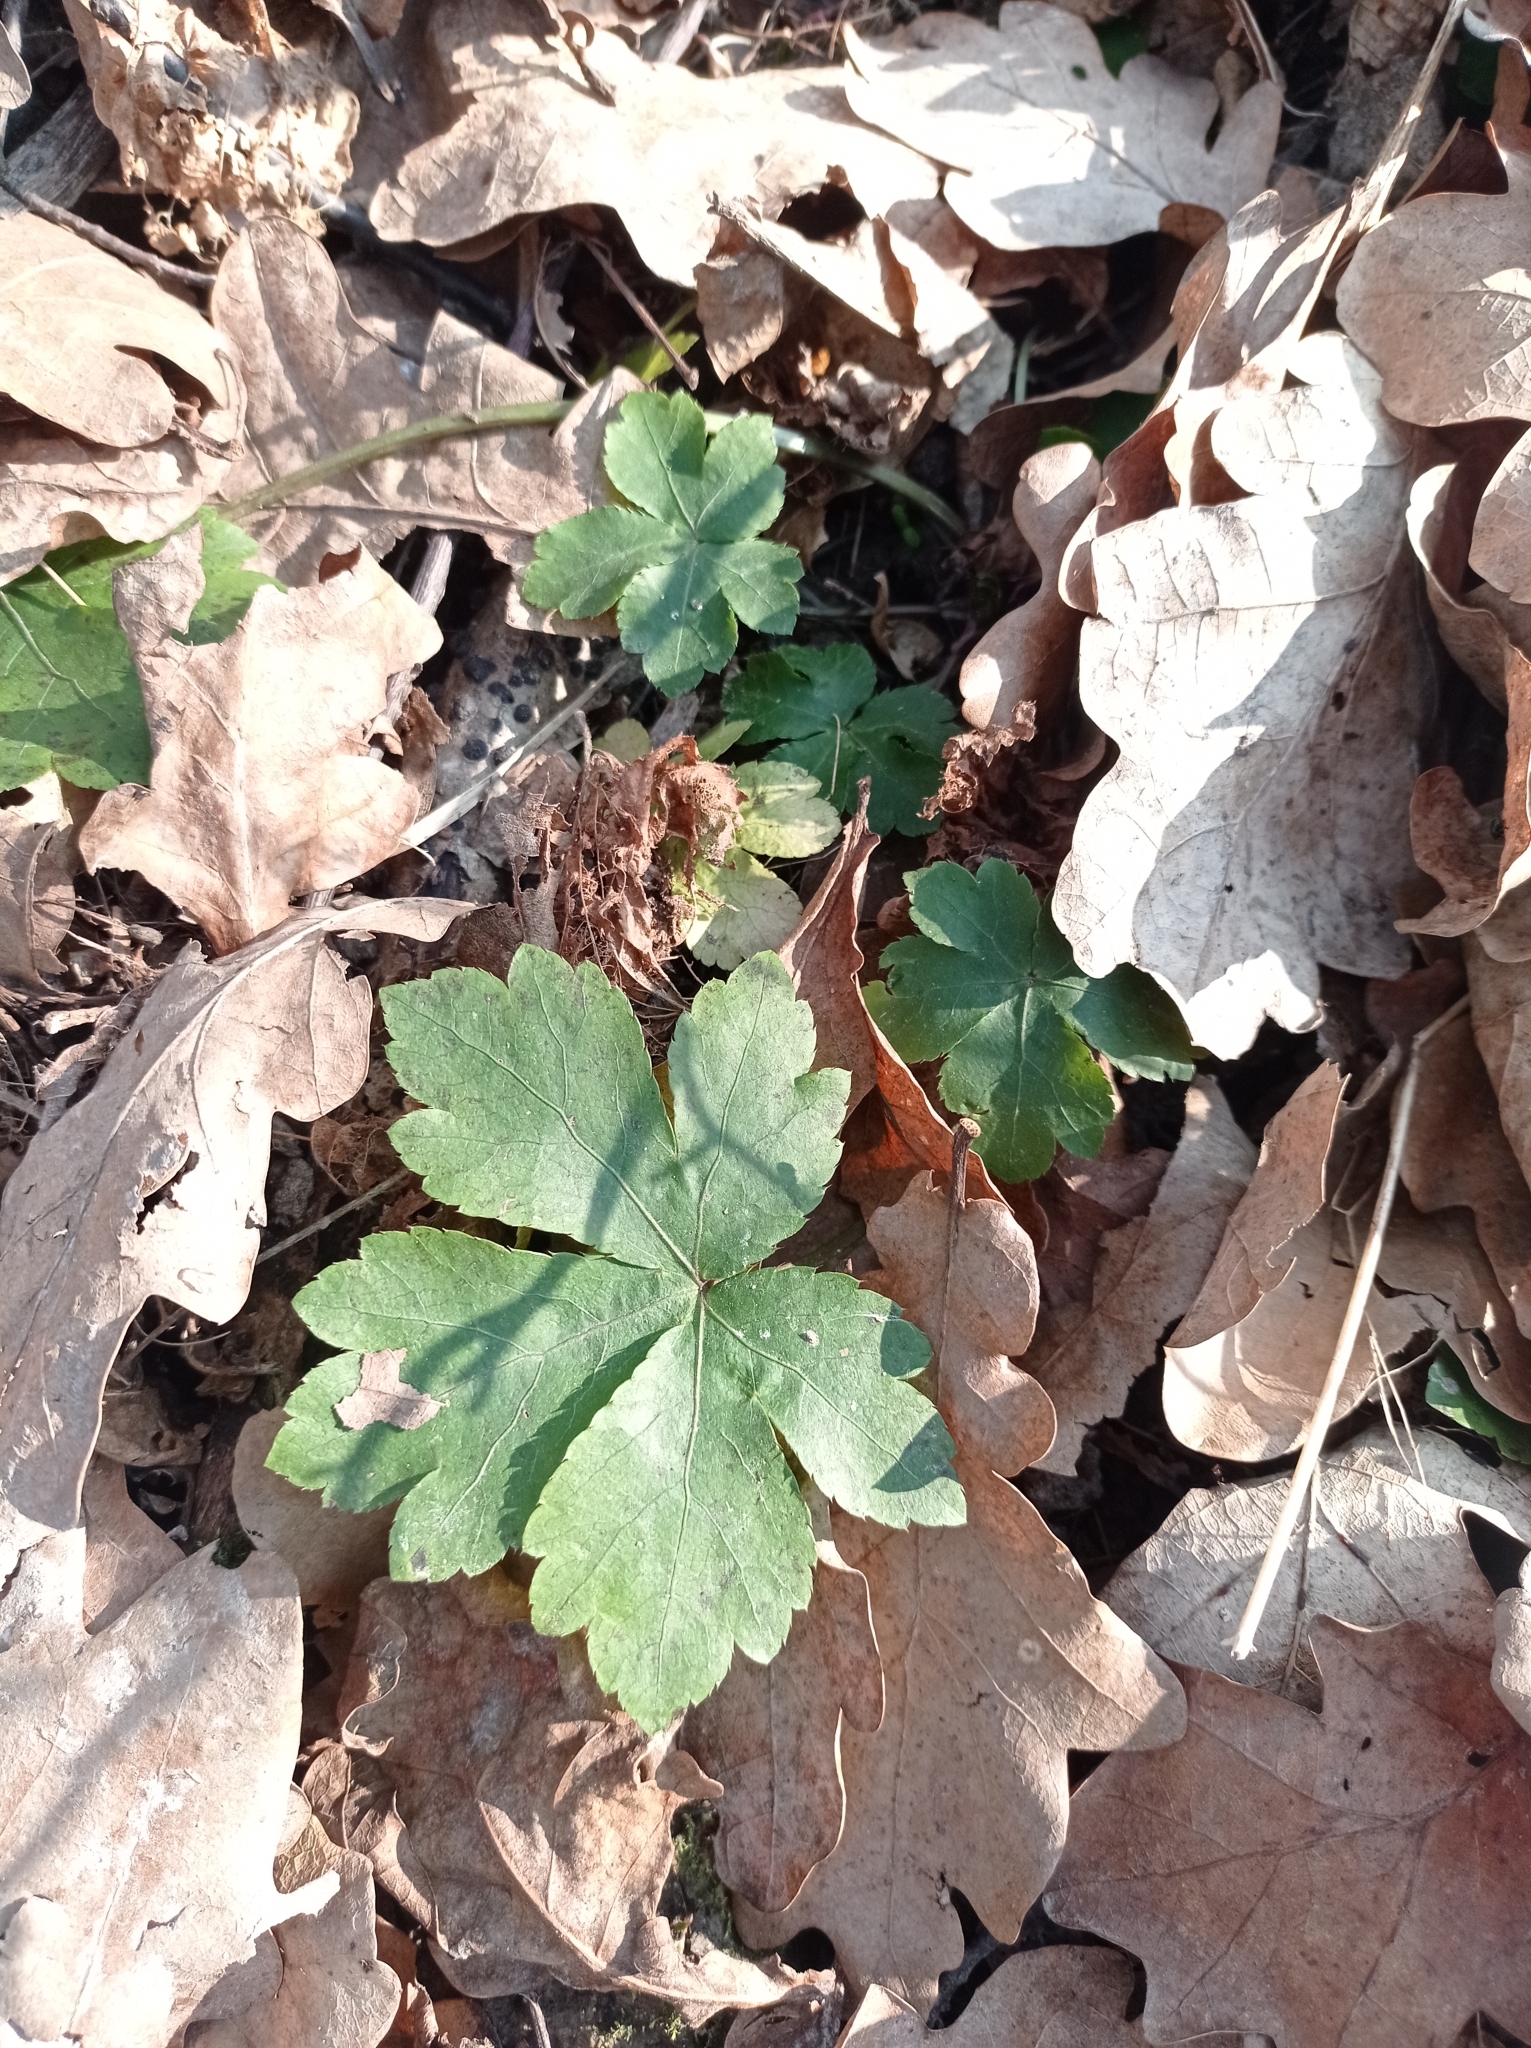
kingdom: Plantae
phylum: Tracheophyta
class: Magnoliopsida
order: Apiales
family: Apiaceae
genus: Sanicula
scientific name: Sanicula europaea
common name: Sanicle
